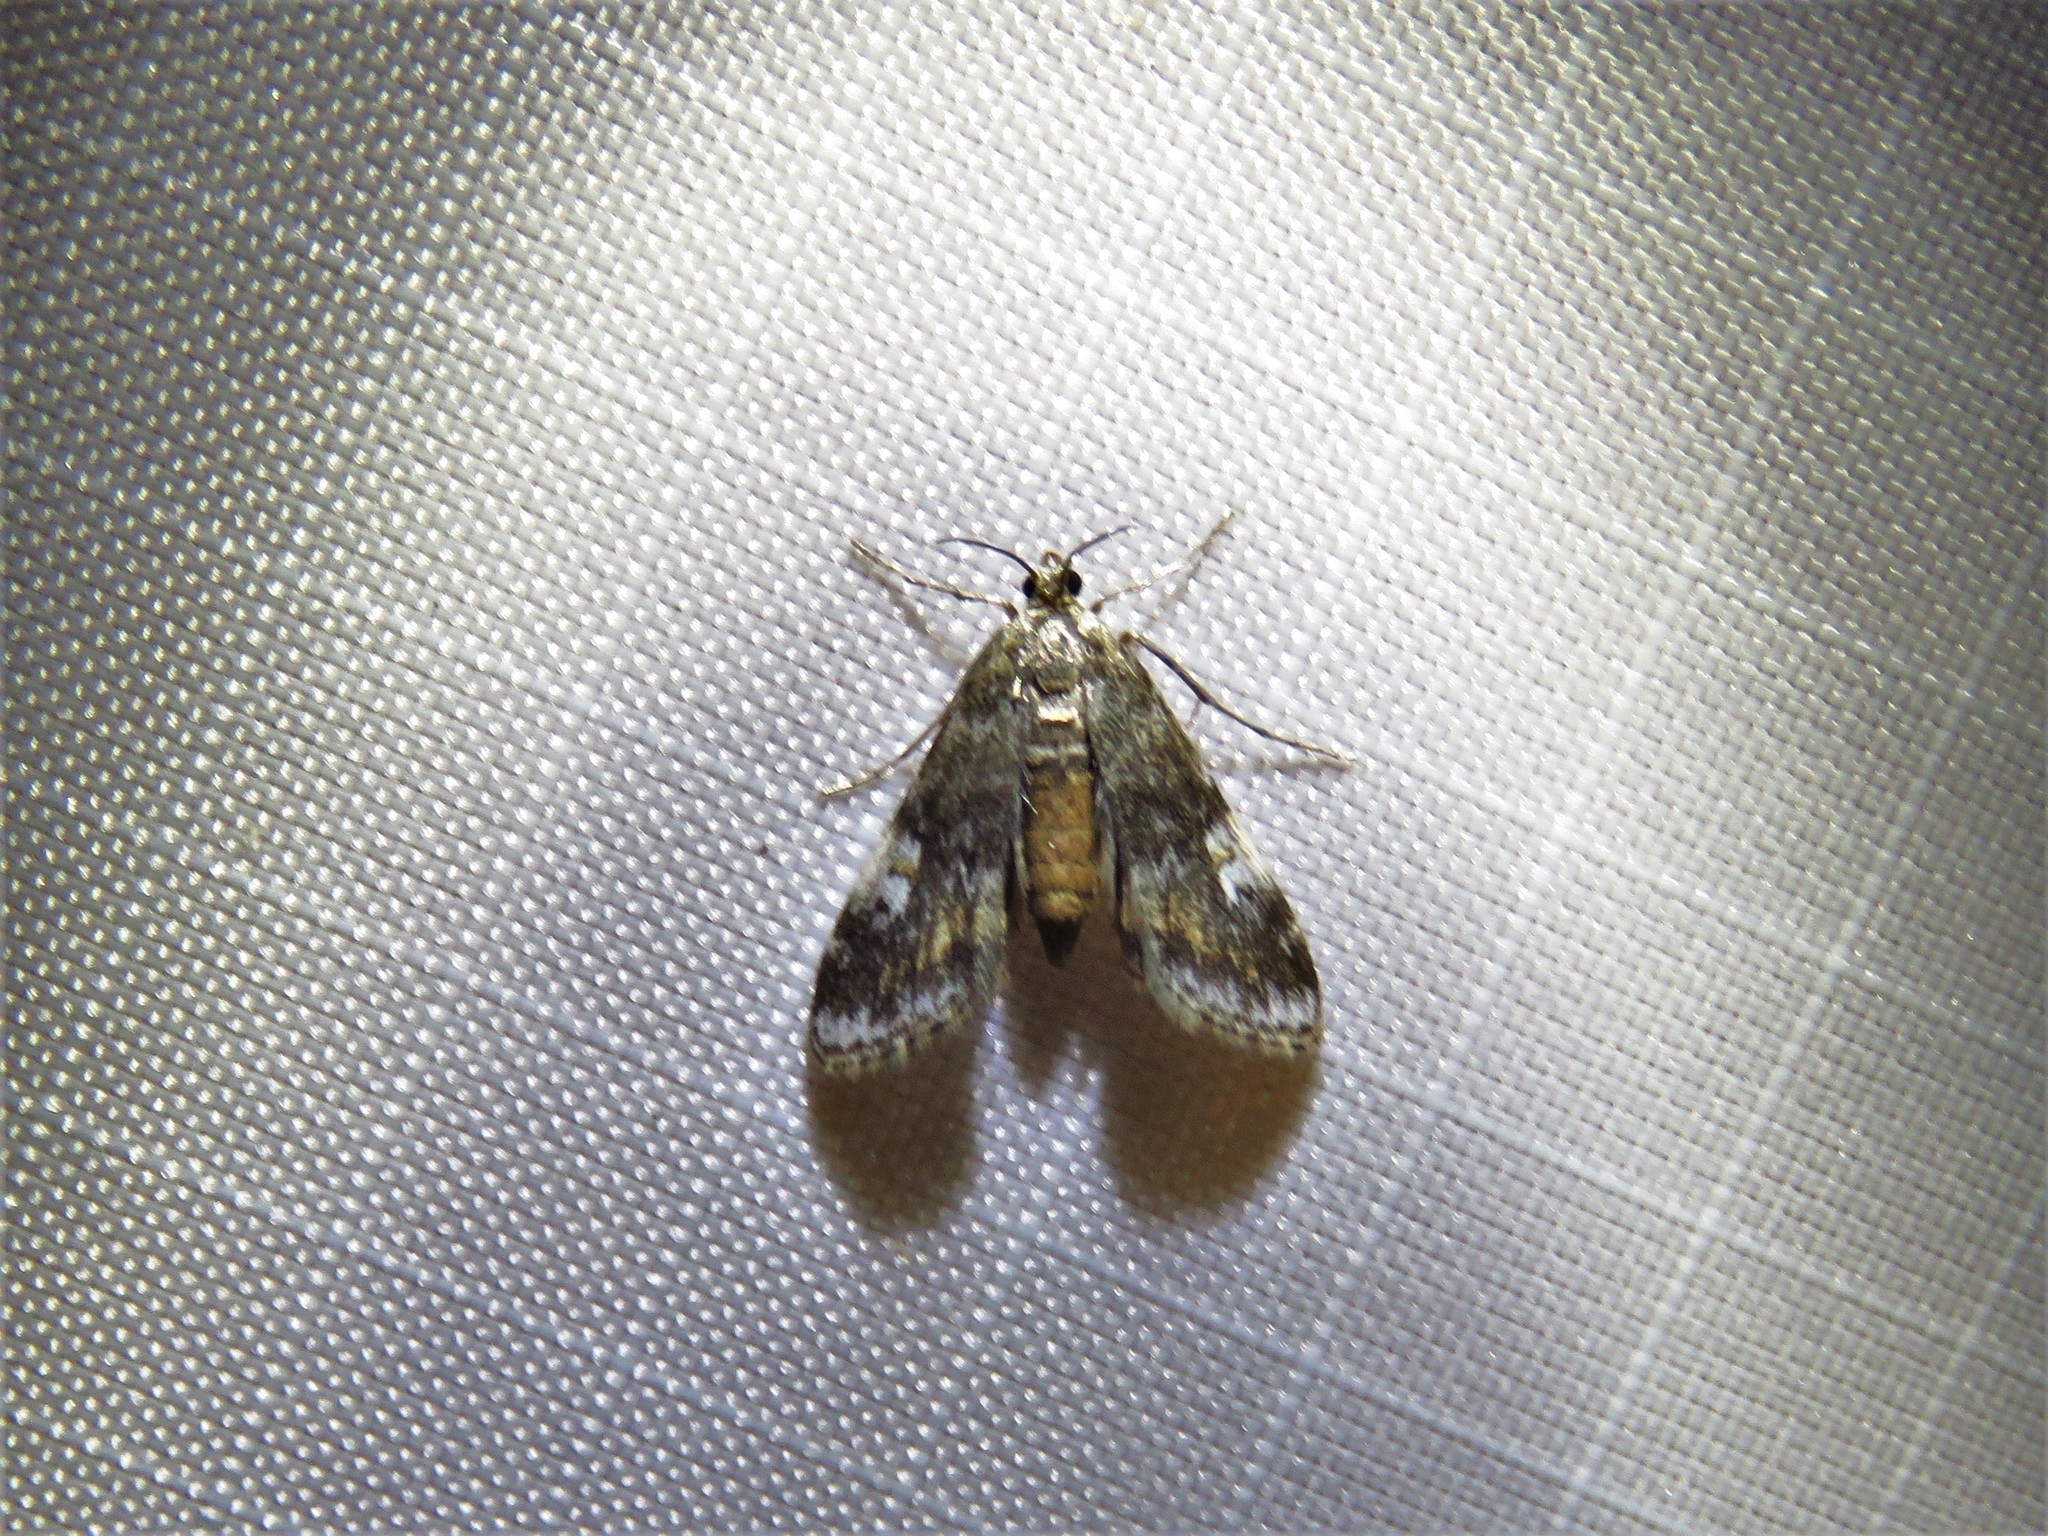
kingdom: Animalia
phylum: Arthropoda
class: Insecta
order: Lepidoptera
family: Crambidae
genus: Elophila
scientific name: Elophila obliteralis
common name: Waterlily leafcutter moth
